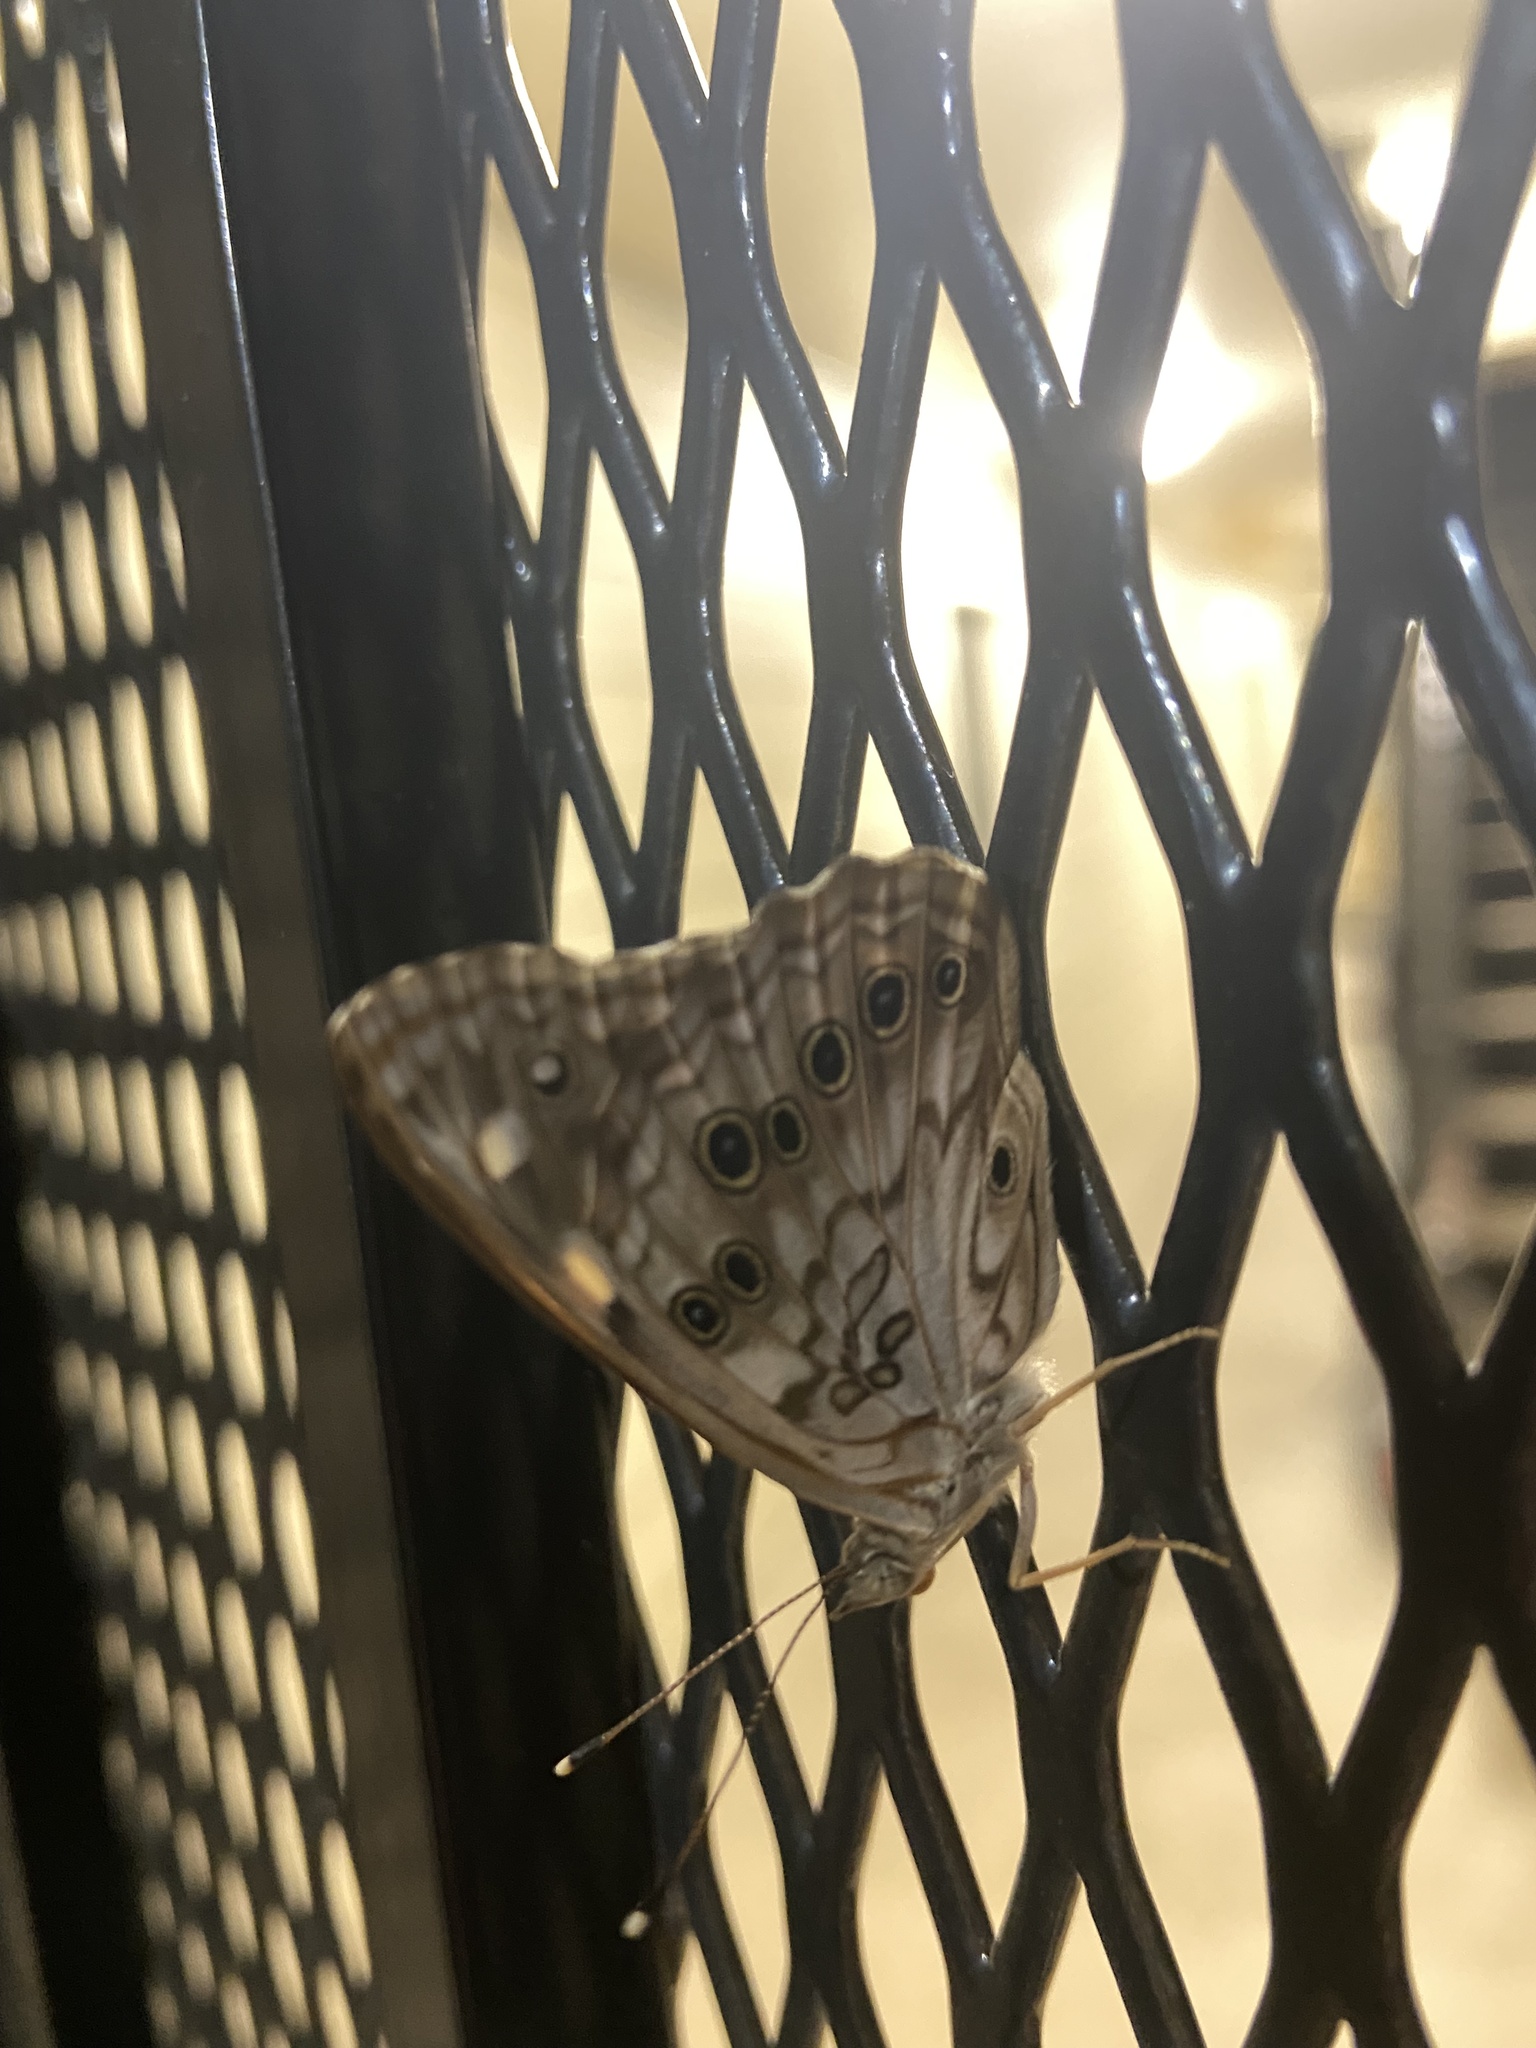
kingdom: Animalia
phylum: Arthropoda
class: Insecta
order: Lepidoptera
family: Nymphalidae
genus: Asterocampa
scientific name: Asterocampa celtis
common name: Hackberry emperor
